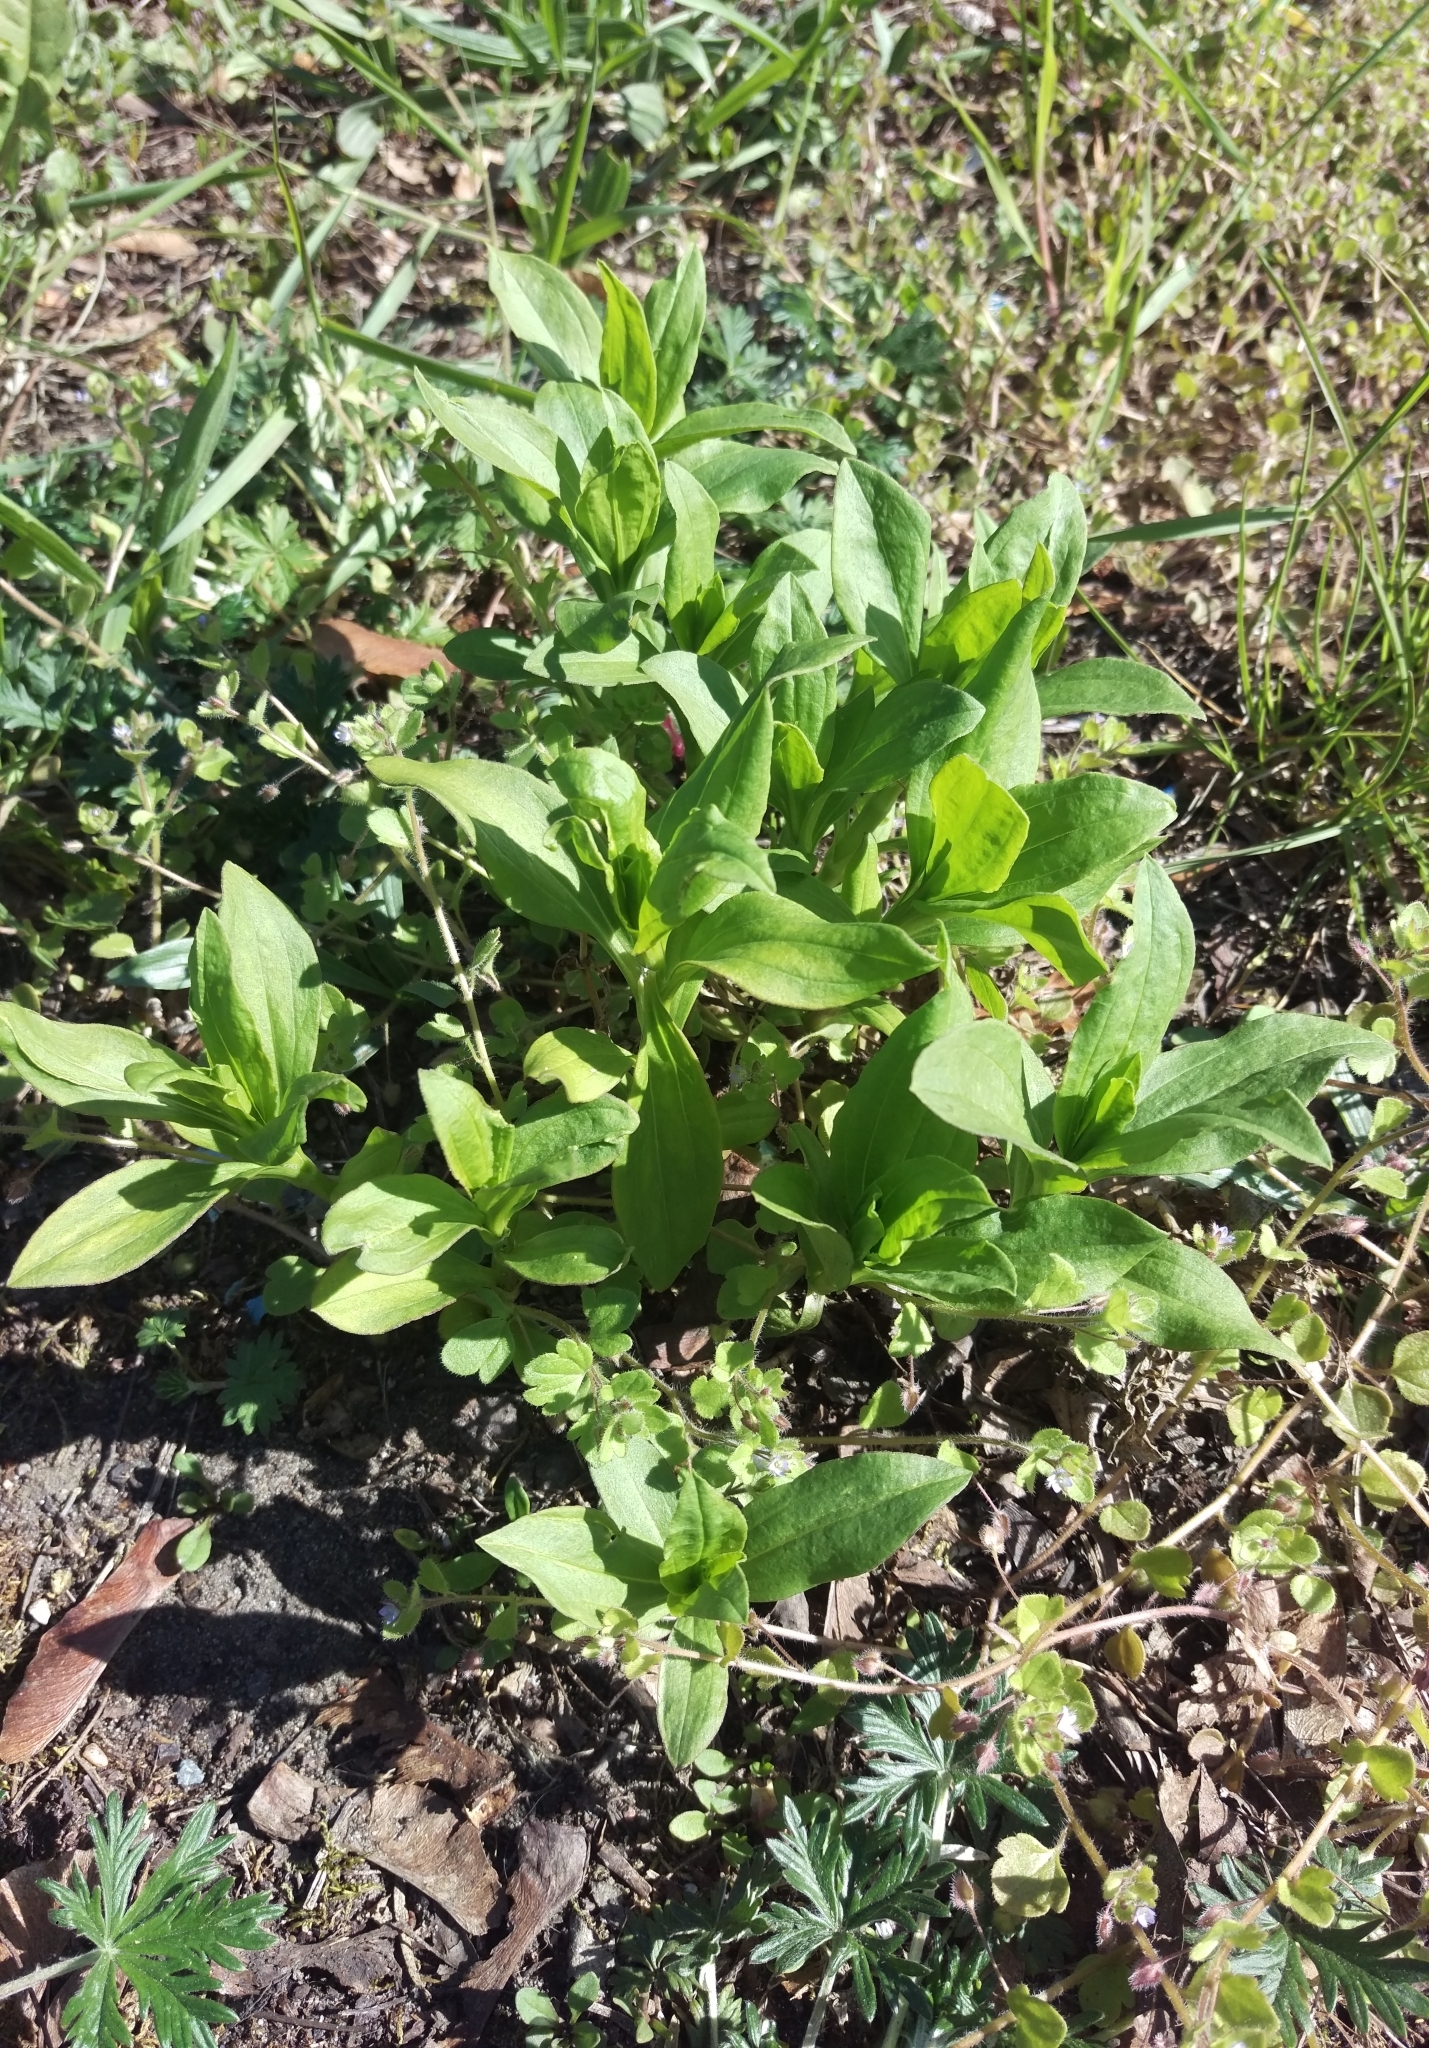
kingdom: Plantae
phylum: Tracheophyta
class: Magnoliopsida
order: Caryophyllales
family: Caryophyllaceae
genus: Saponaria
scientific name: Saponaria officinalis
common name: Soapwort
